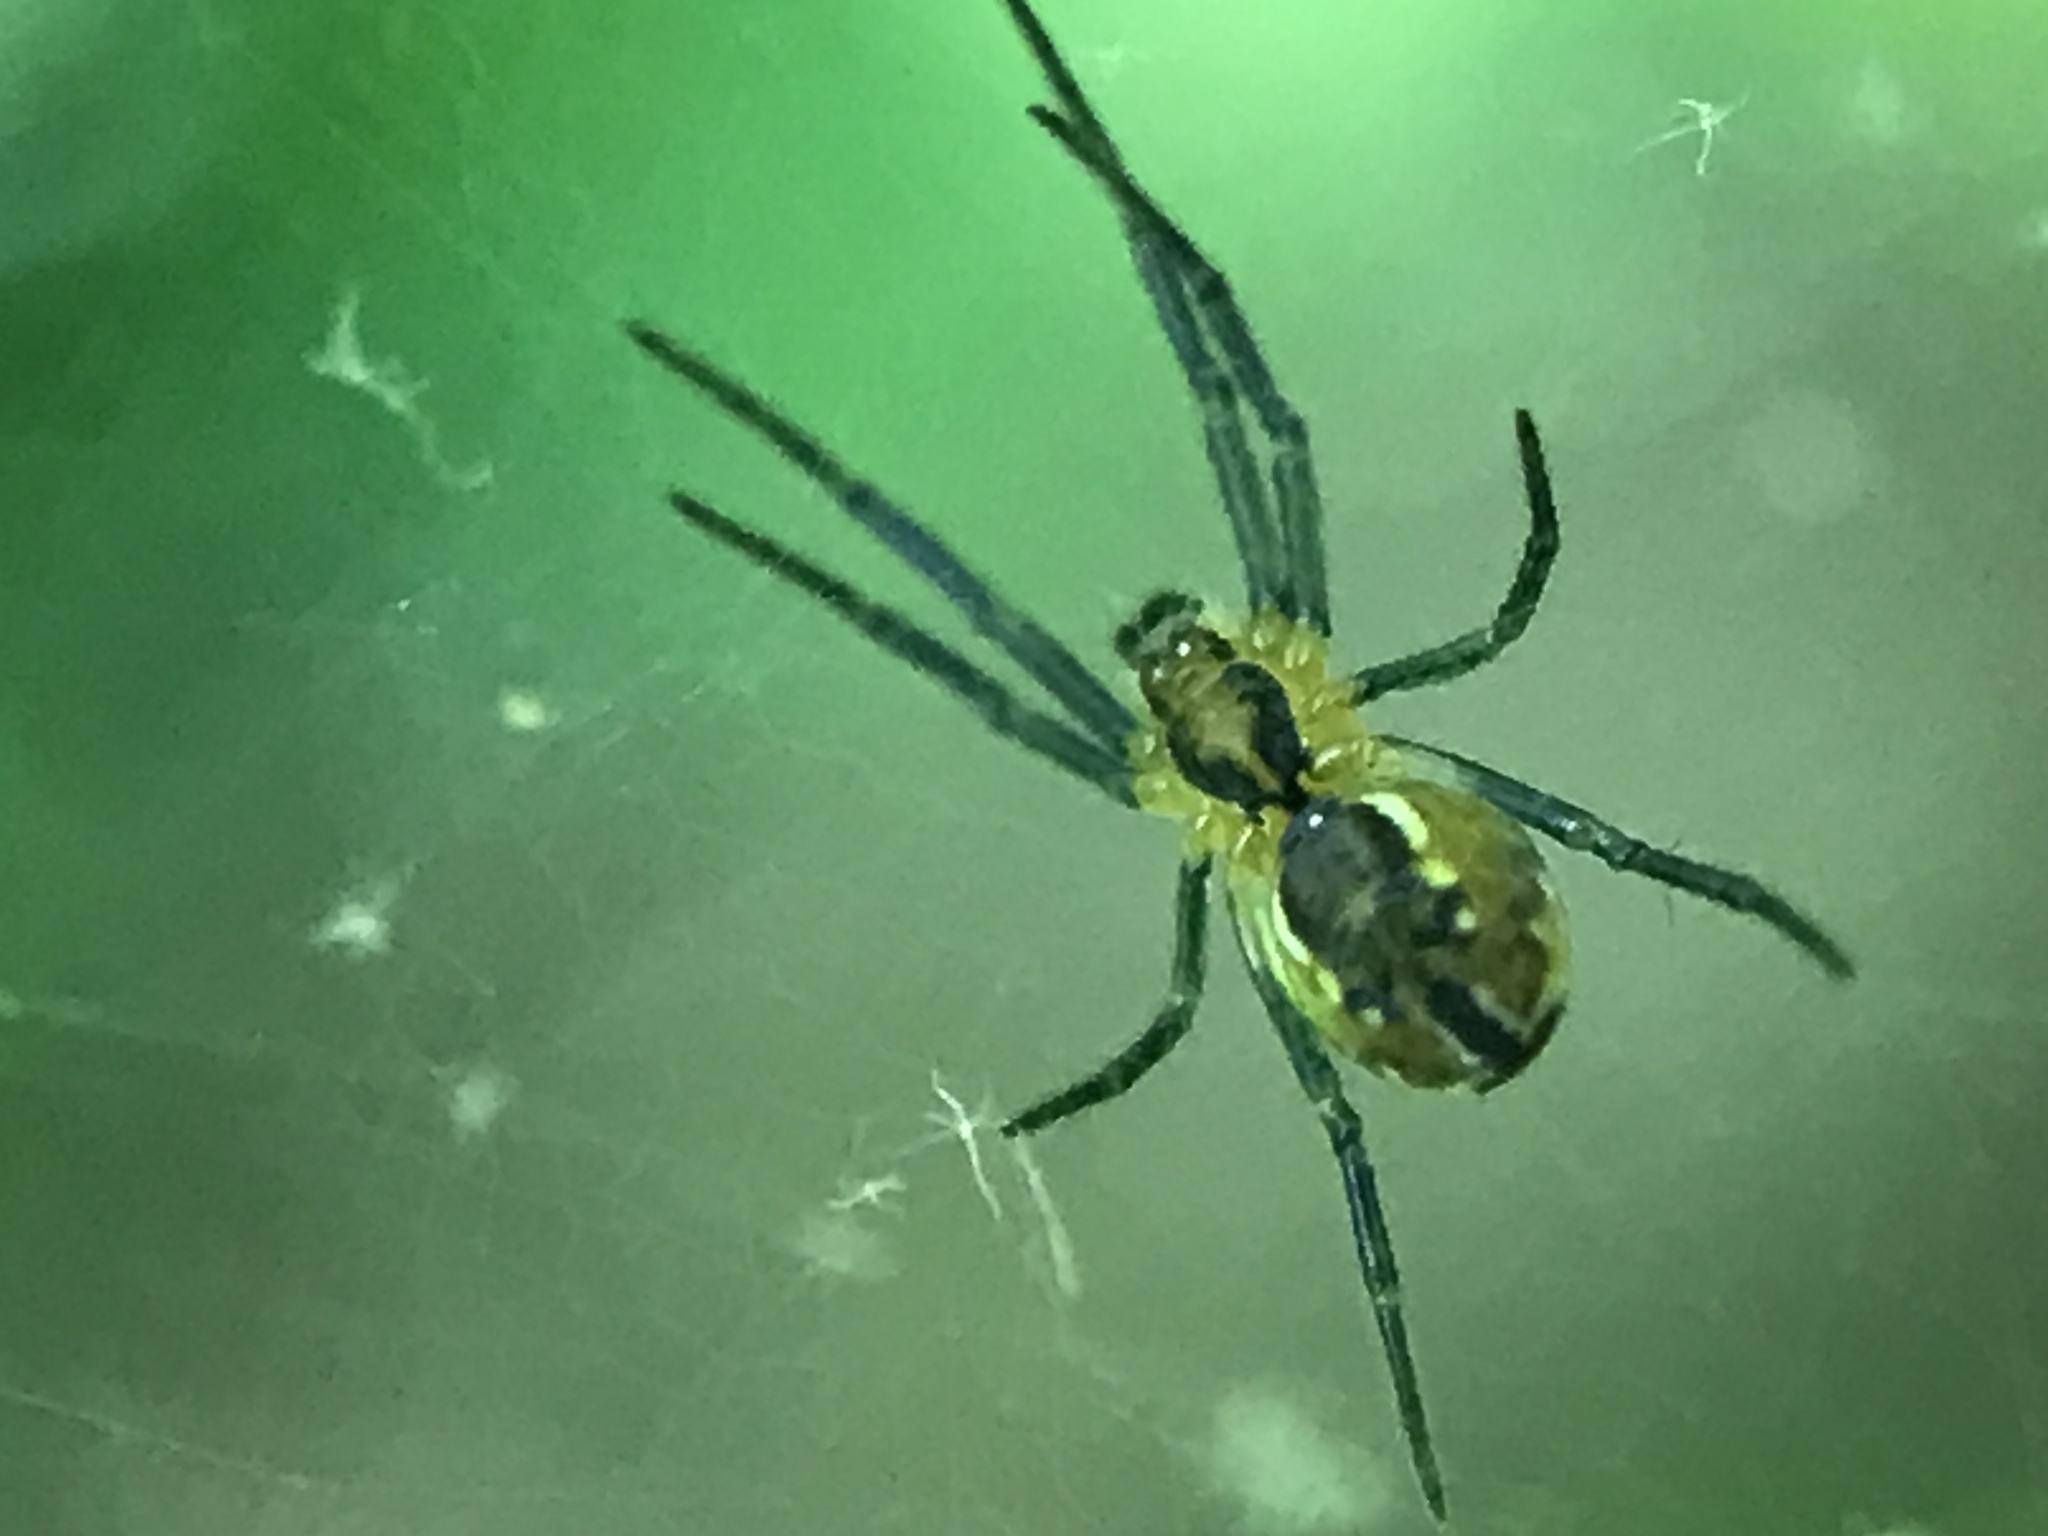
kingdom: Animalia
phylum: Arthropoda
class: Arachnida
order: Araneae
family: Araneidae
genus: Mecynogea
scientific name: Mecynogea lemniscata
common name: Orb weavers
